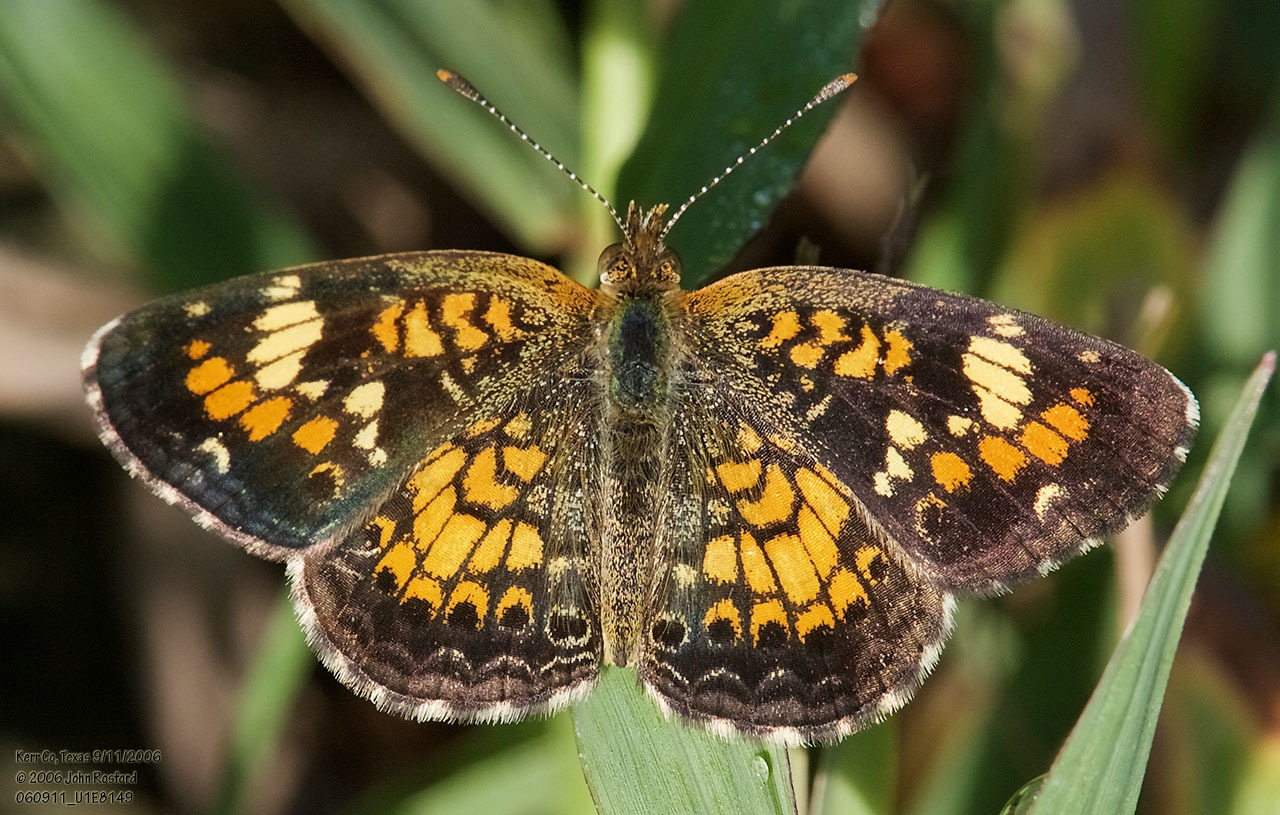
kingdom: Animalia
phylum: Arthropoda
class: Insecta
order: Lepidoptera
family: Nymphalidae
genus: Phyciodes
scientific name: Phyciodes phaon
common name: Phaon crescent
